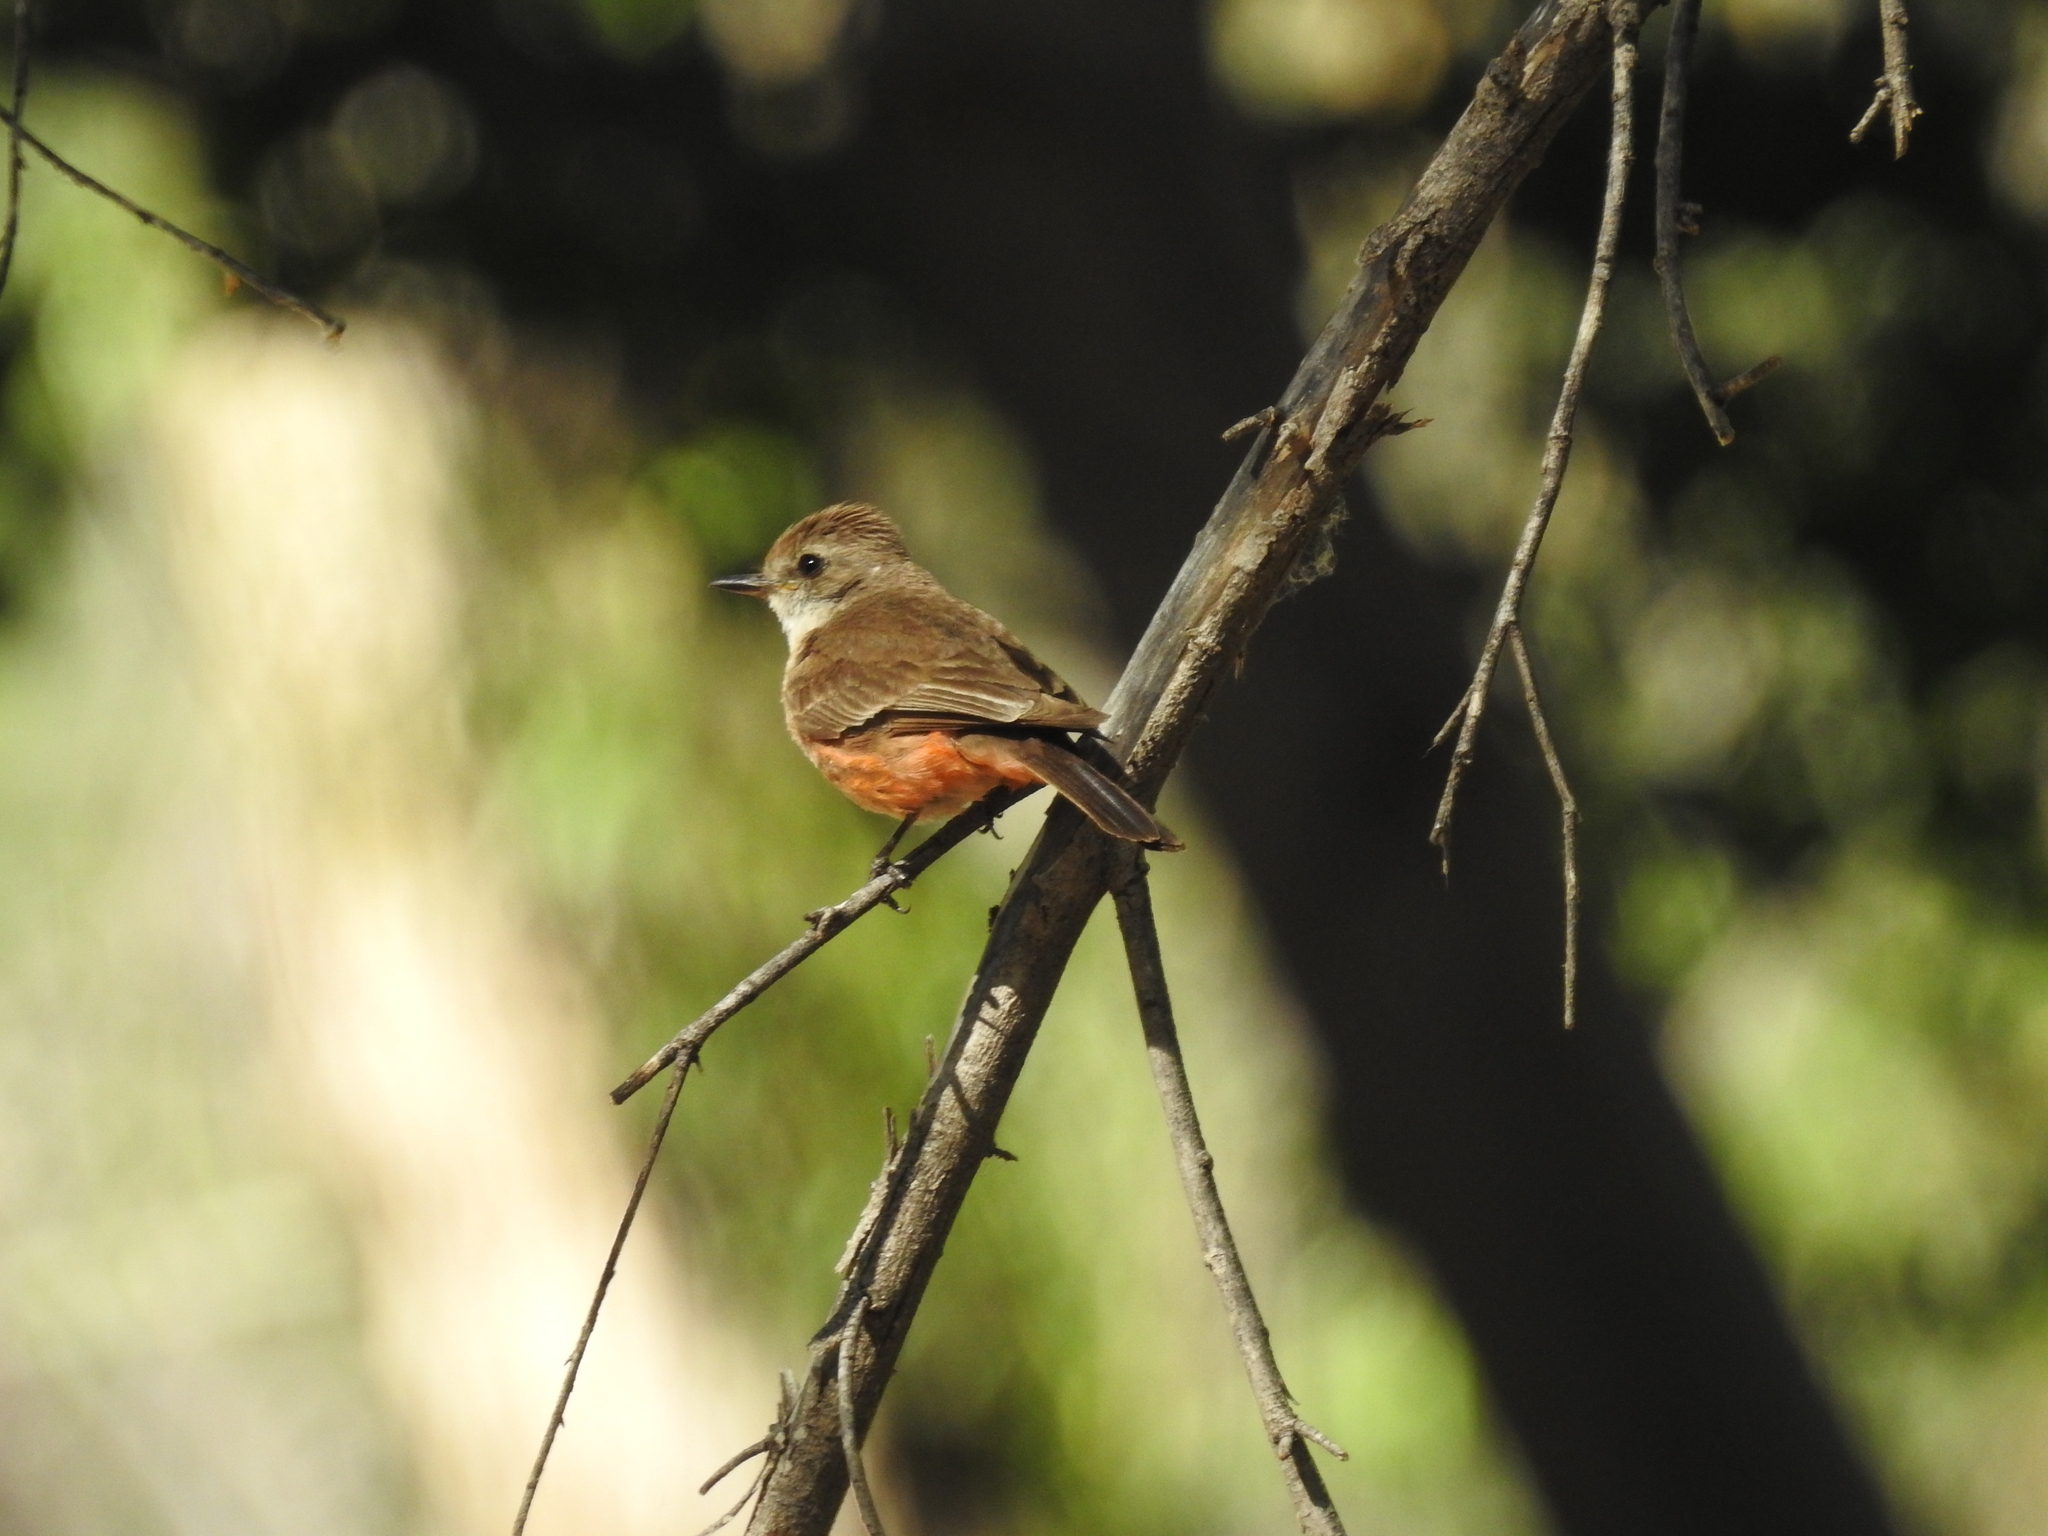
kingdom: Animalia
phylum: Chordata
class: Aves
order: Passeriformes
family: Tyrannidae
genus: Pyrocephalus
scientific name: Pyrocephalus rubinus
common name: Vermilion flycatcher
